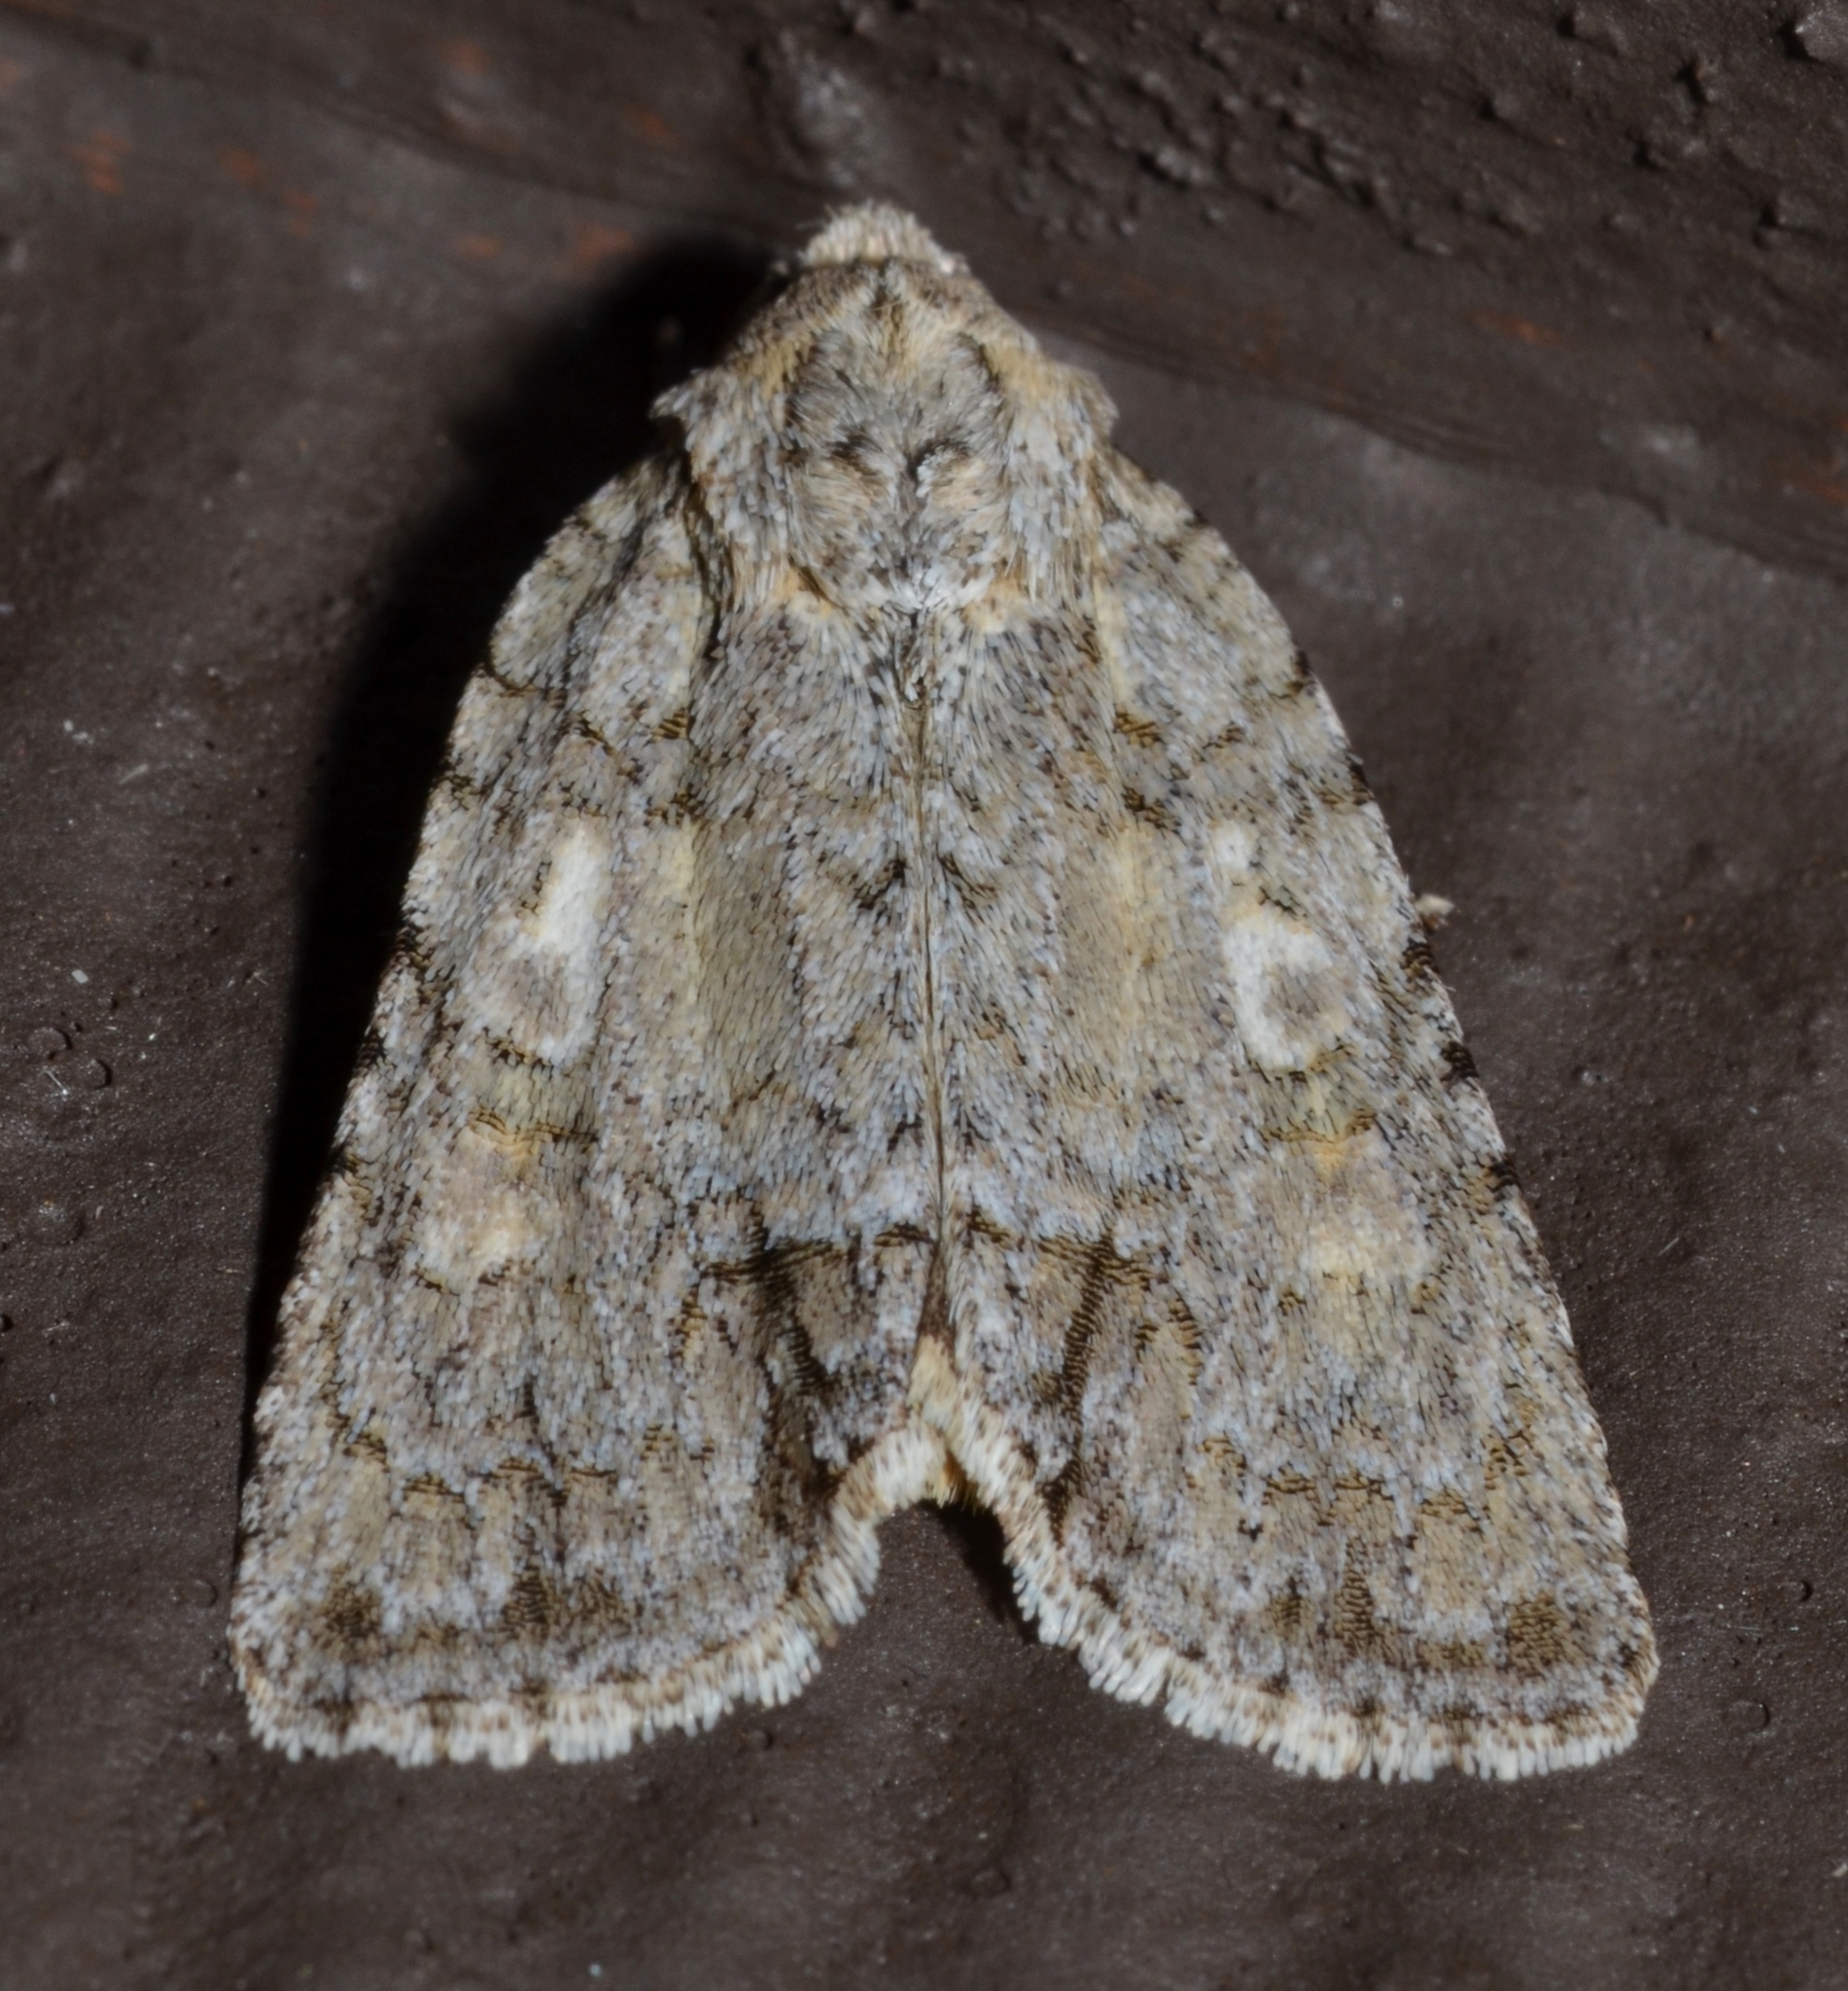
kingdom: Animalia
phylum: Arthropoda
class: Insecta
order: Lepidoptera
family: Noctuidae
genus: Acronicta
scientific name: Acronicta
